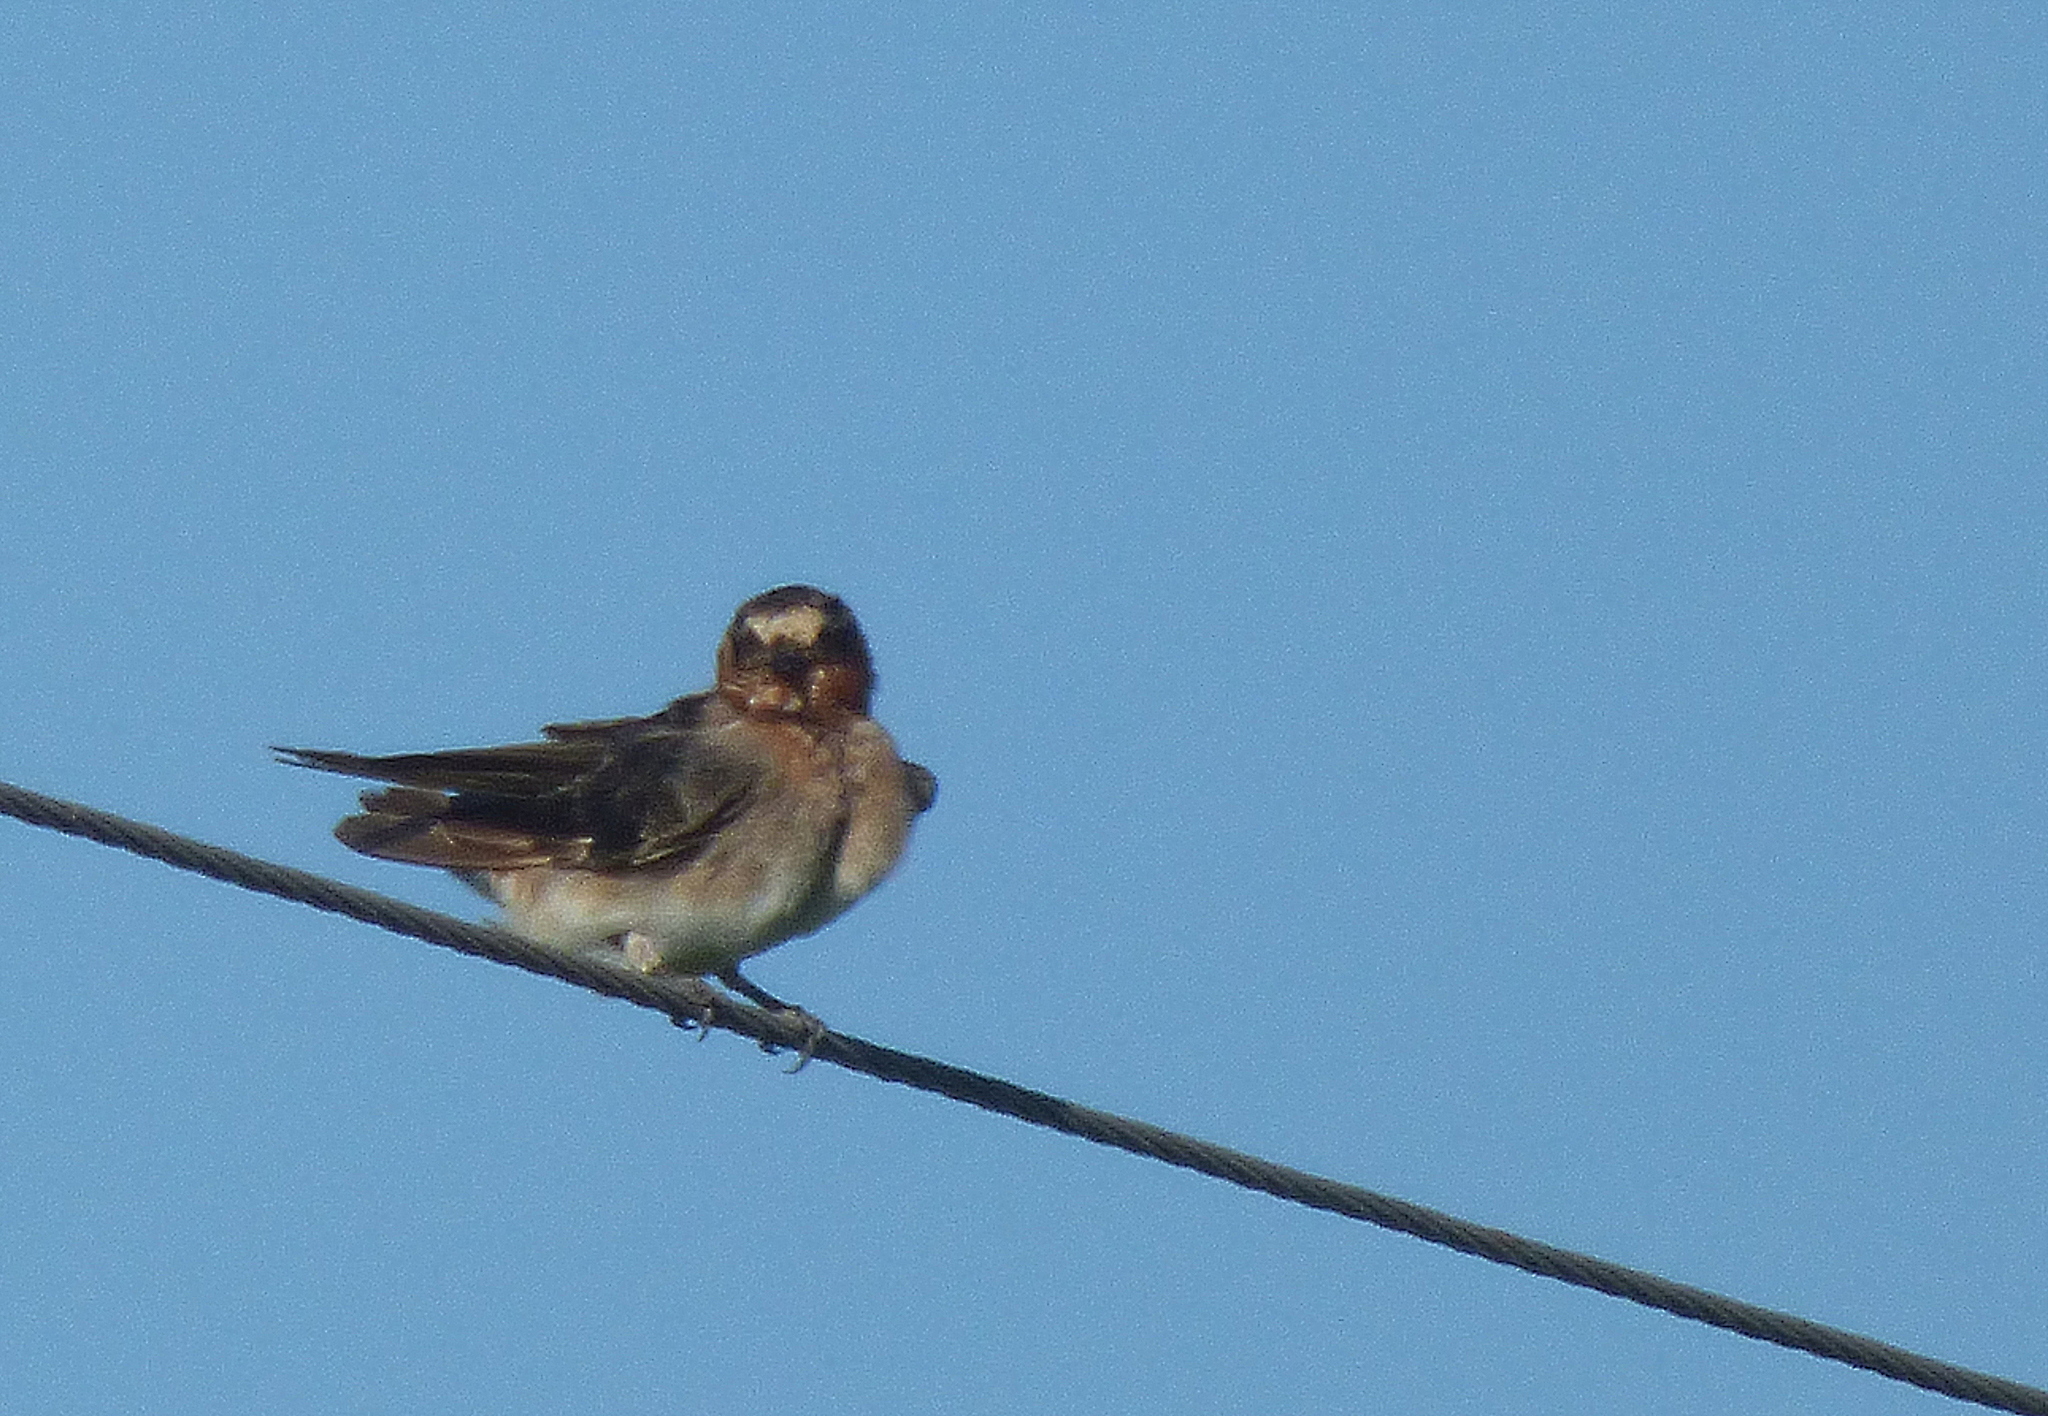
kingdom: Animalia
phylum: Chordata
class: Aves
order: Passeriformes
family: Hirundinidae
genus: Petrochelidon
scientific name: Petrochelidon pyrrhonota
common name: American cliff swallow
